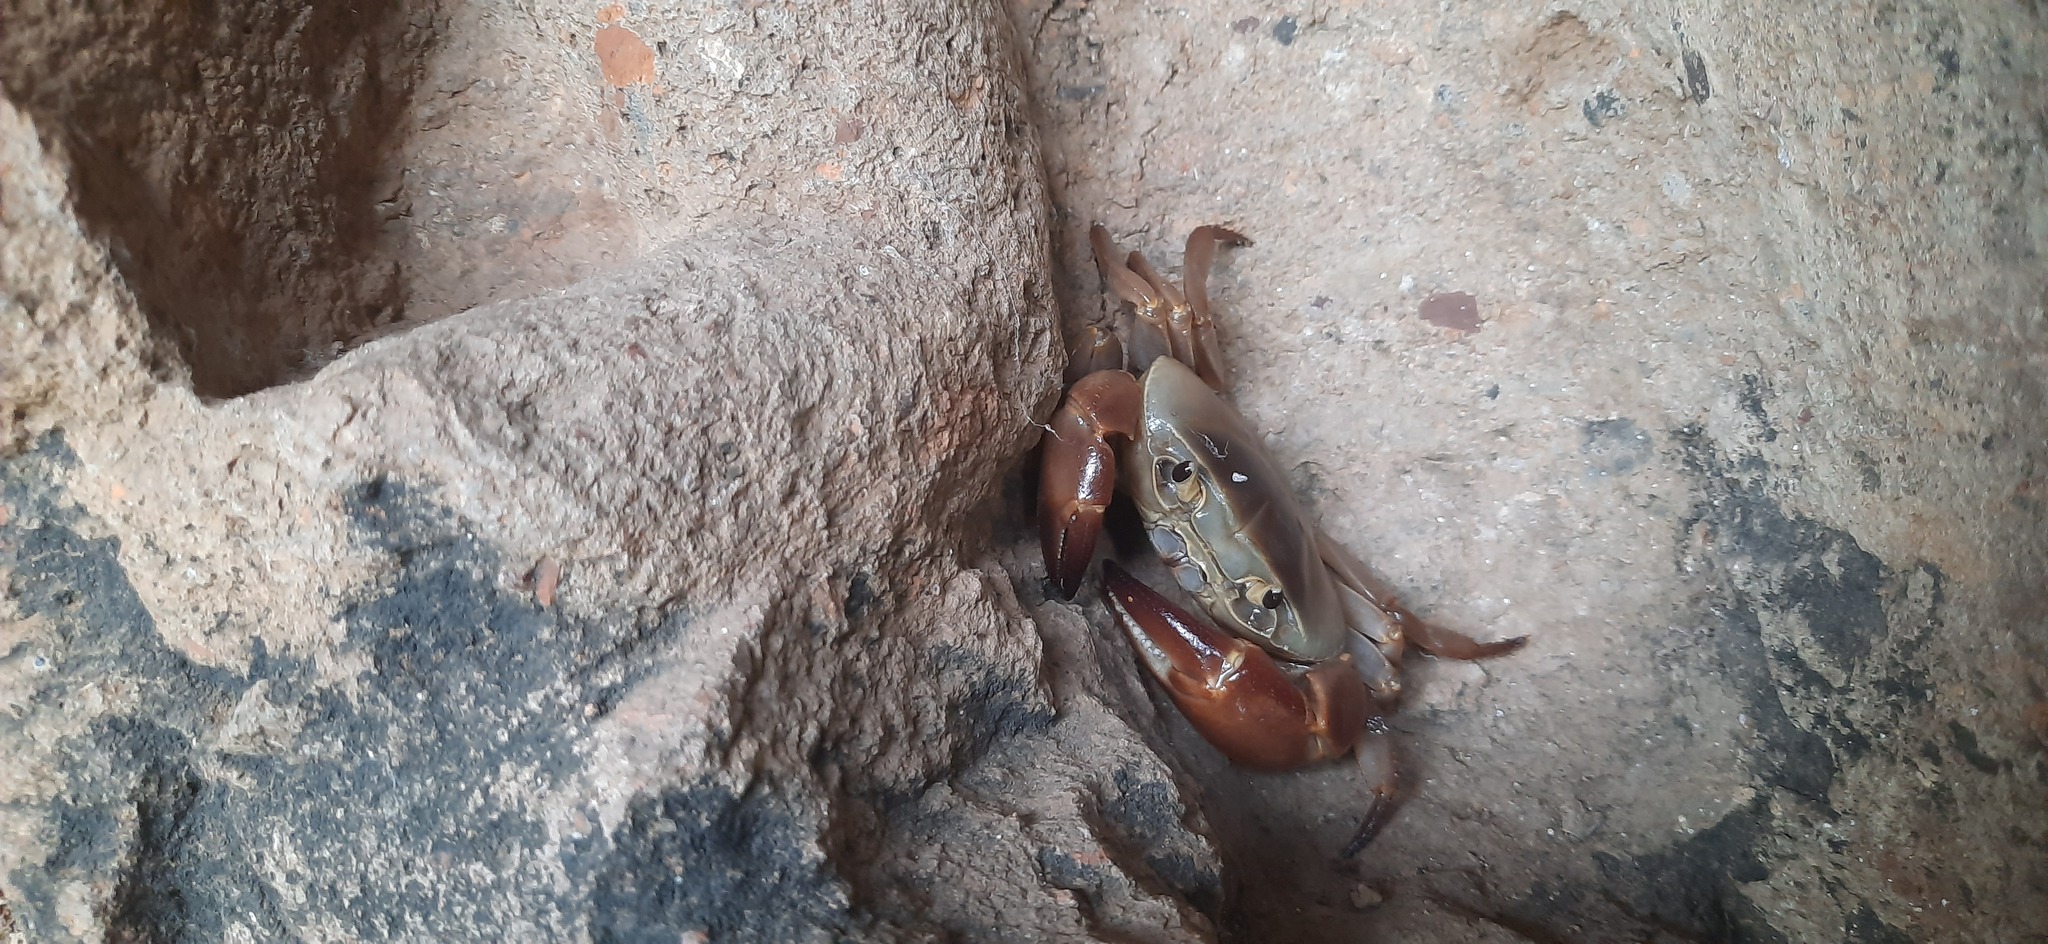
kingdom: Animalia
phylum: Arthropoda
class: Malacostraca
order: Decapoda
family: Gecarcinucidae
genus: Barytelphusa
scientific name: Barytelphusa cunicularis
